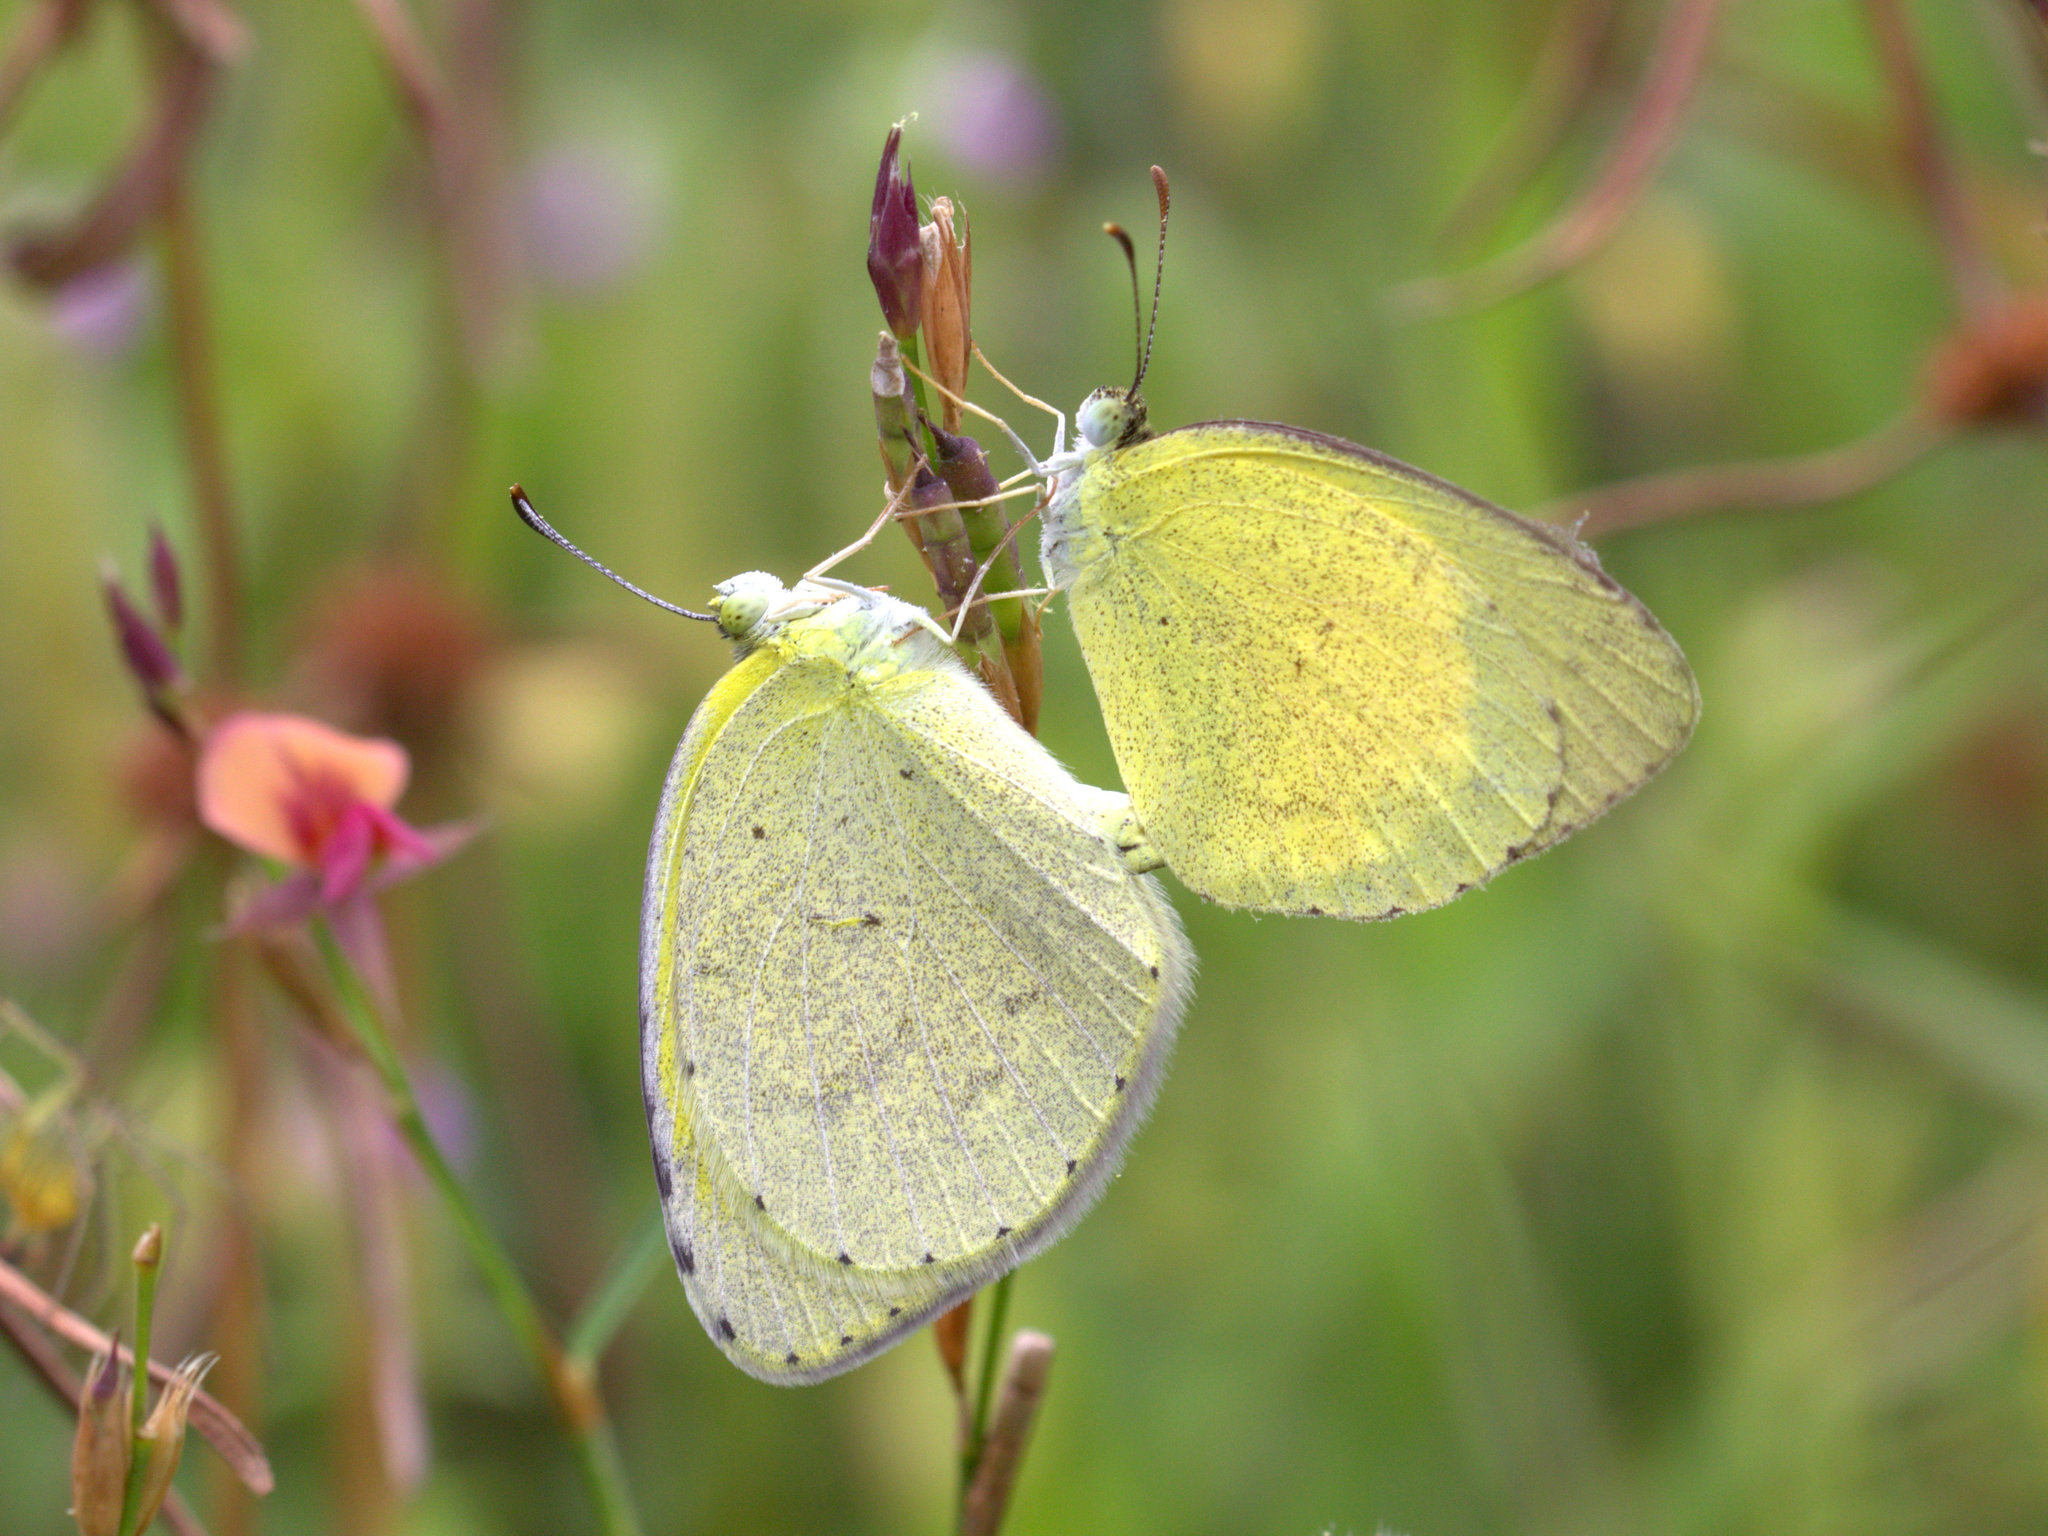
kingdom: Animalia
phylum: Arthropoda
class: Insecta
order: Lepidoptera
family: Pieridae
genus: Eurema
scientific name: Eurema brigitta
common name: Small grass yellow
